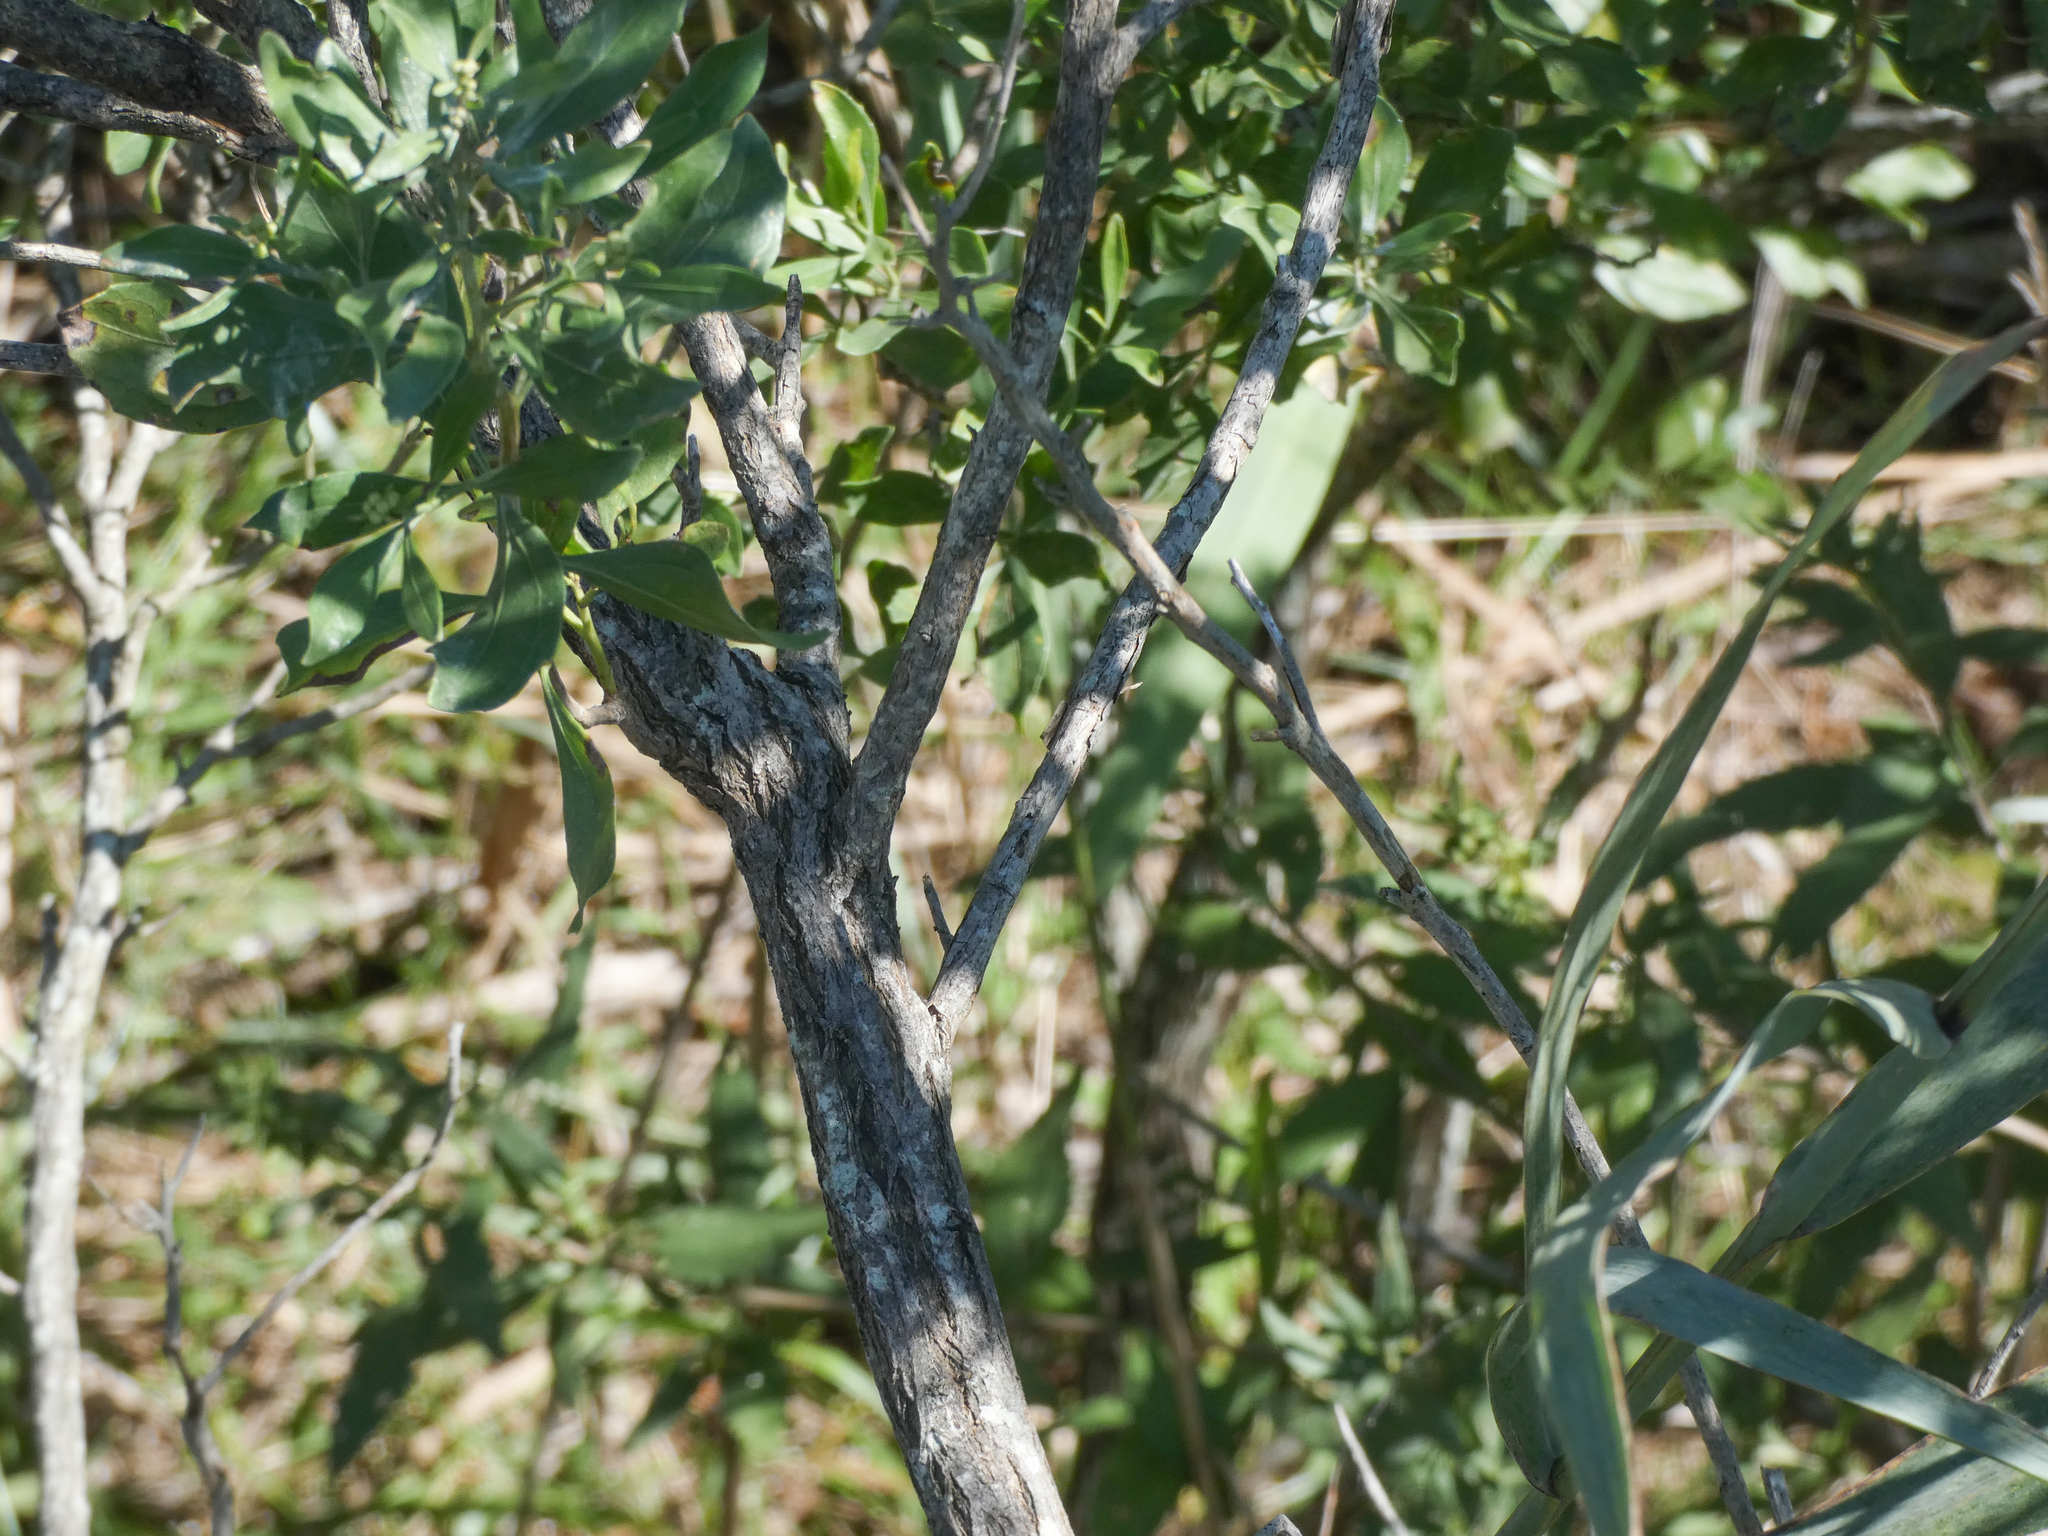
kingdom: Plantae
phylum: Tracheophyta
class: Magnoliopsida
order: Asterales
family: Asteraceae
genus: Baccharis
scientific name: Baccharis halimifolia
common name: Eastern baccharis
